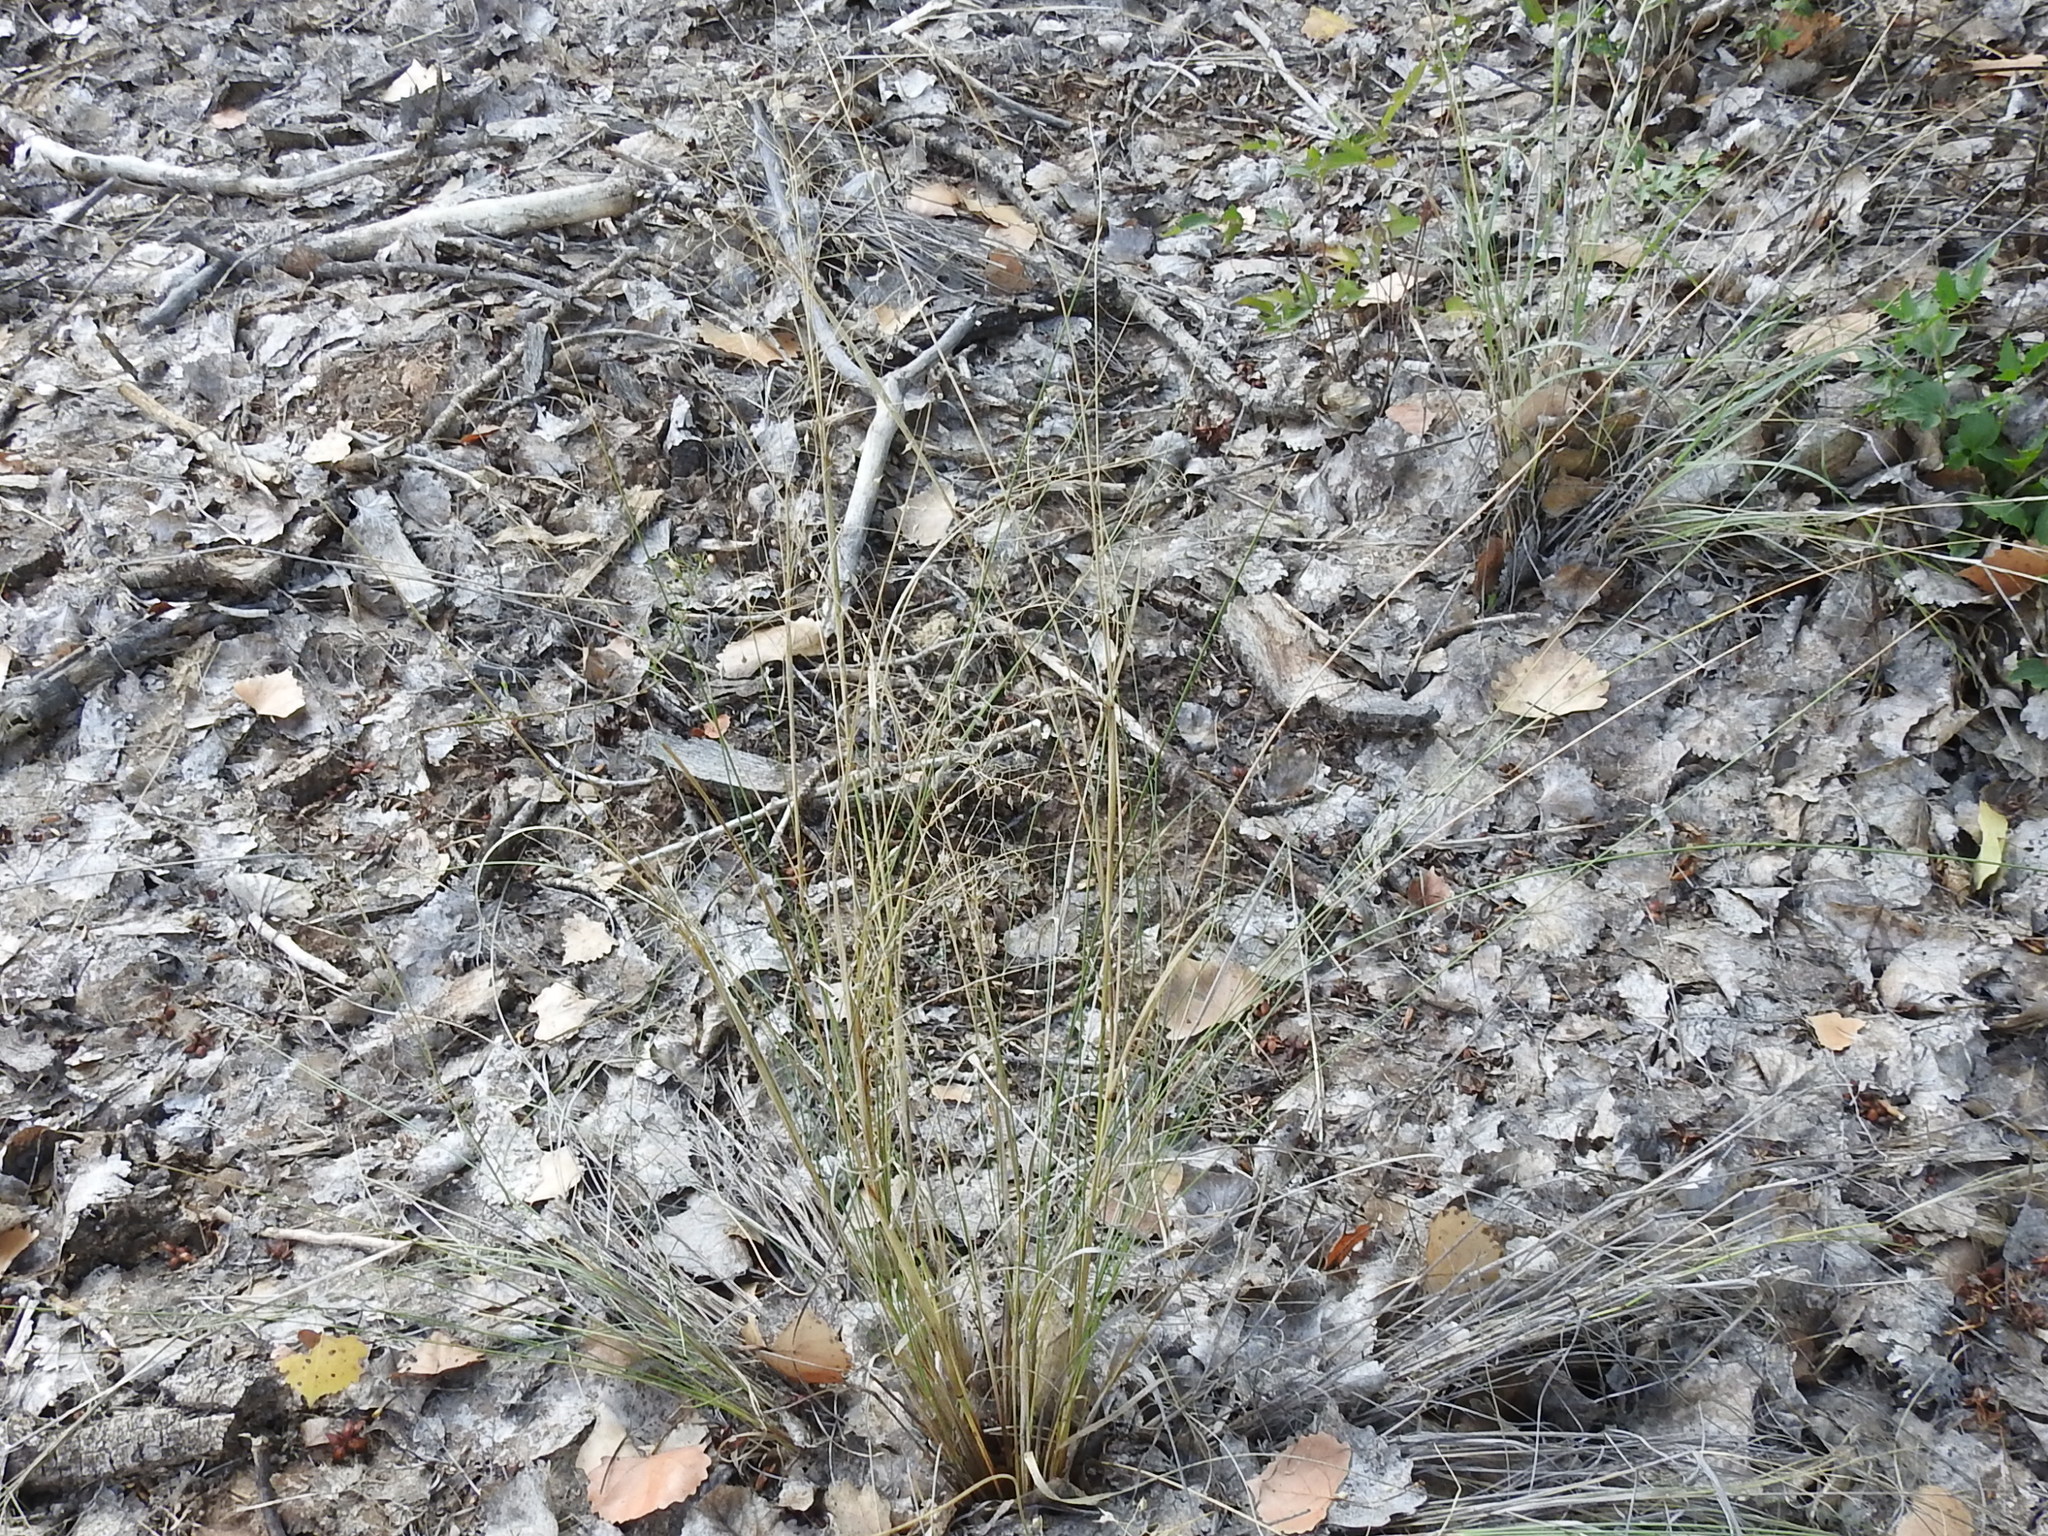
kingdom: Plantae
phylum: Tracheophyta
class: Liliopsida
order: Poales
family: Poaceae
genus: Eriocoma
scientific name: Eriocoma hymenoides
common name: Indian mountain ricegrass
